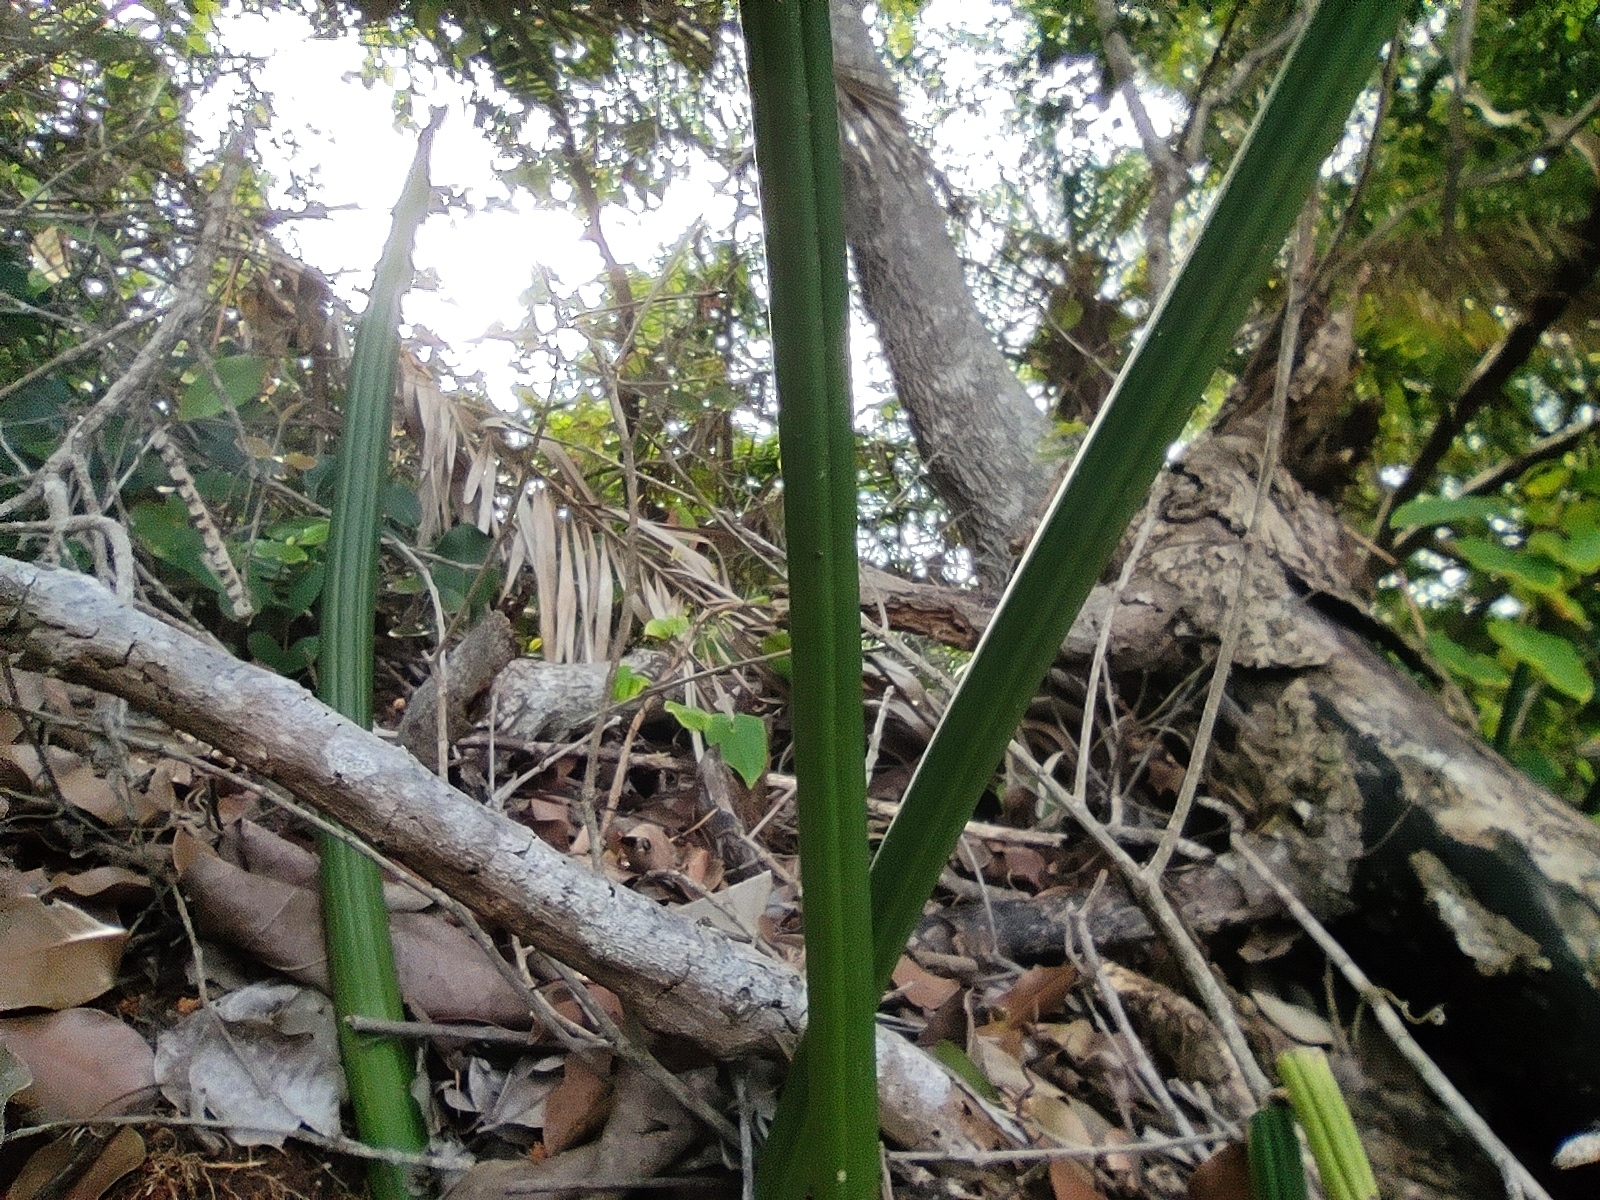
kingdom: Plantae
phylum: Tracheophyta
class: Liliopsida
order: Asparagales
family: Asparagaceae
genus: Dracaena
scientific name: Dracaena canaliculata
